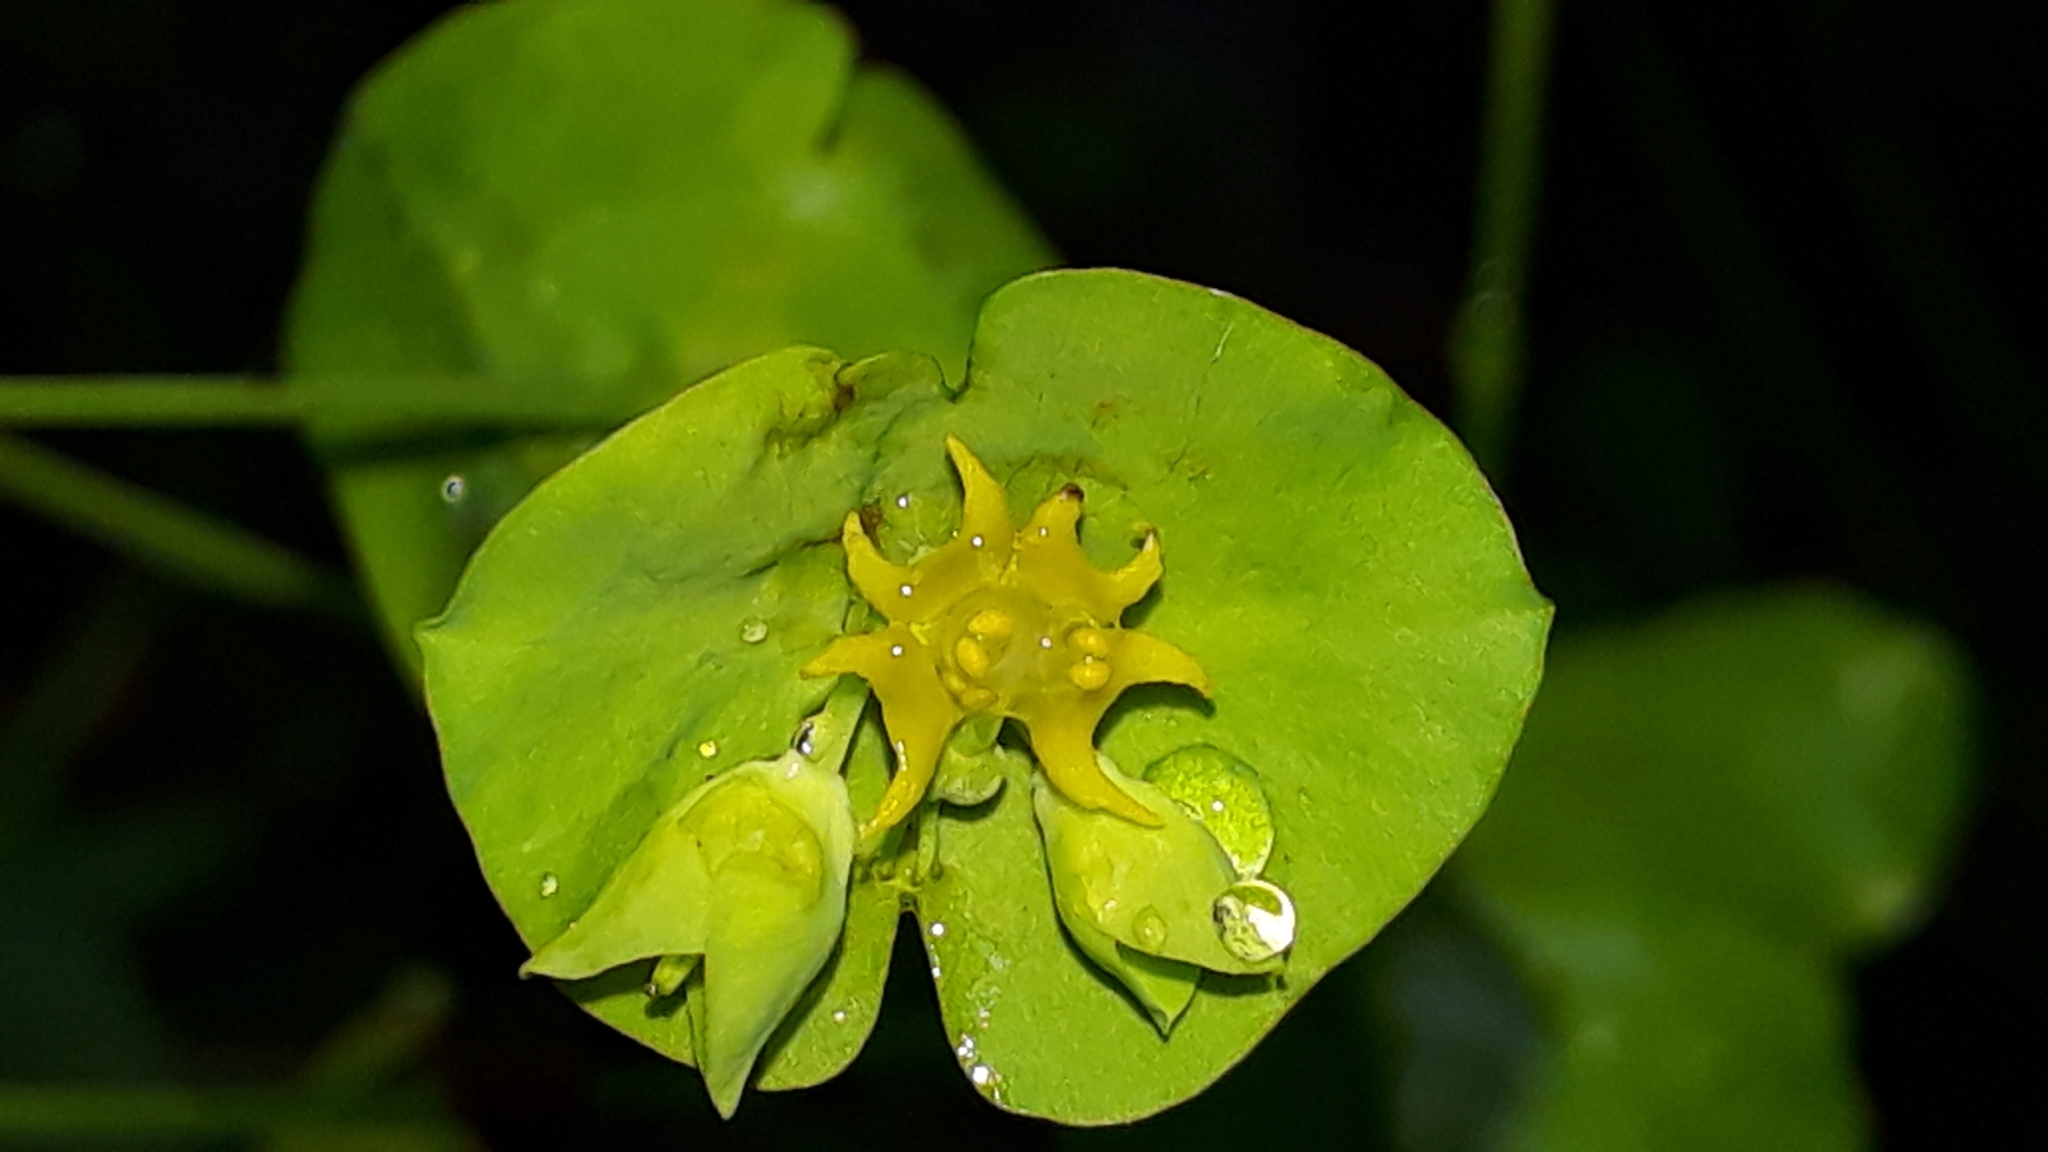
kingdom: Plantae
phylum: Tracheophyta
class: Magnoliopsida
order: Malpighiales
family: Euphorbiaceae
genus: Euphorbia
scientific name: Euphorbia amygdaloides
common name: Wood spurge
